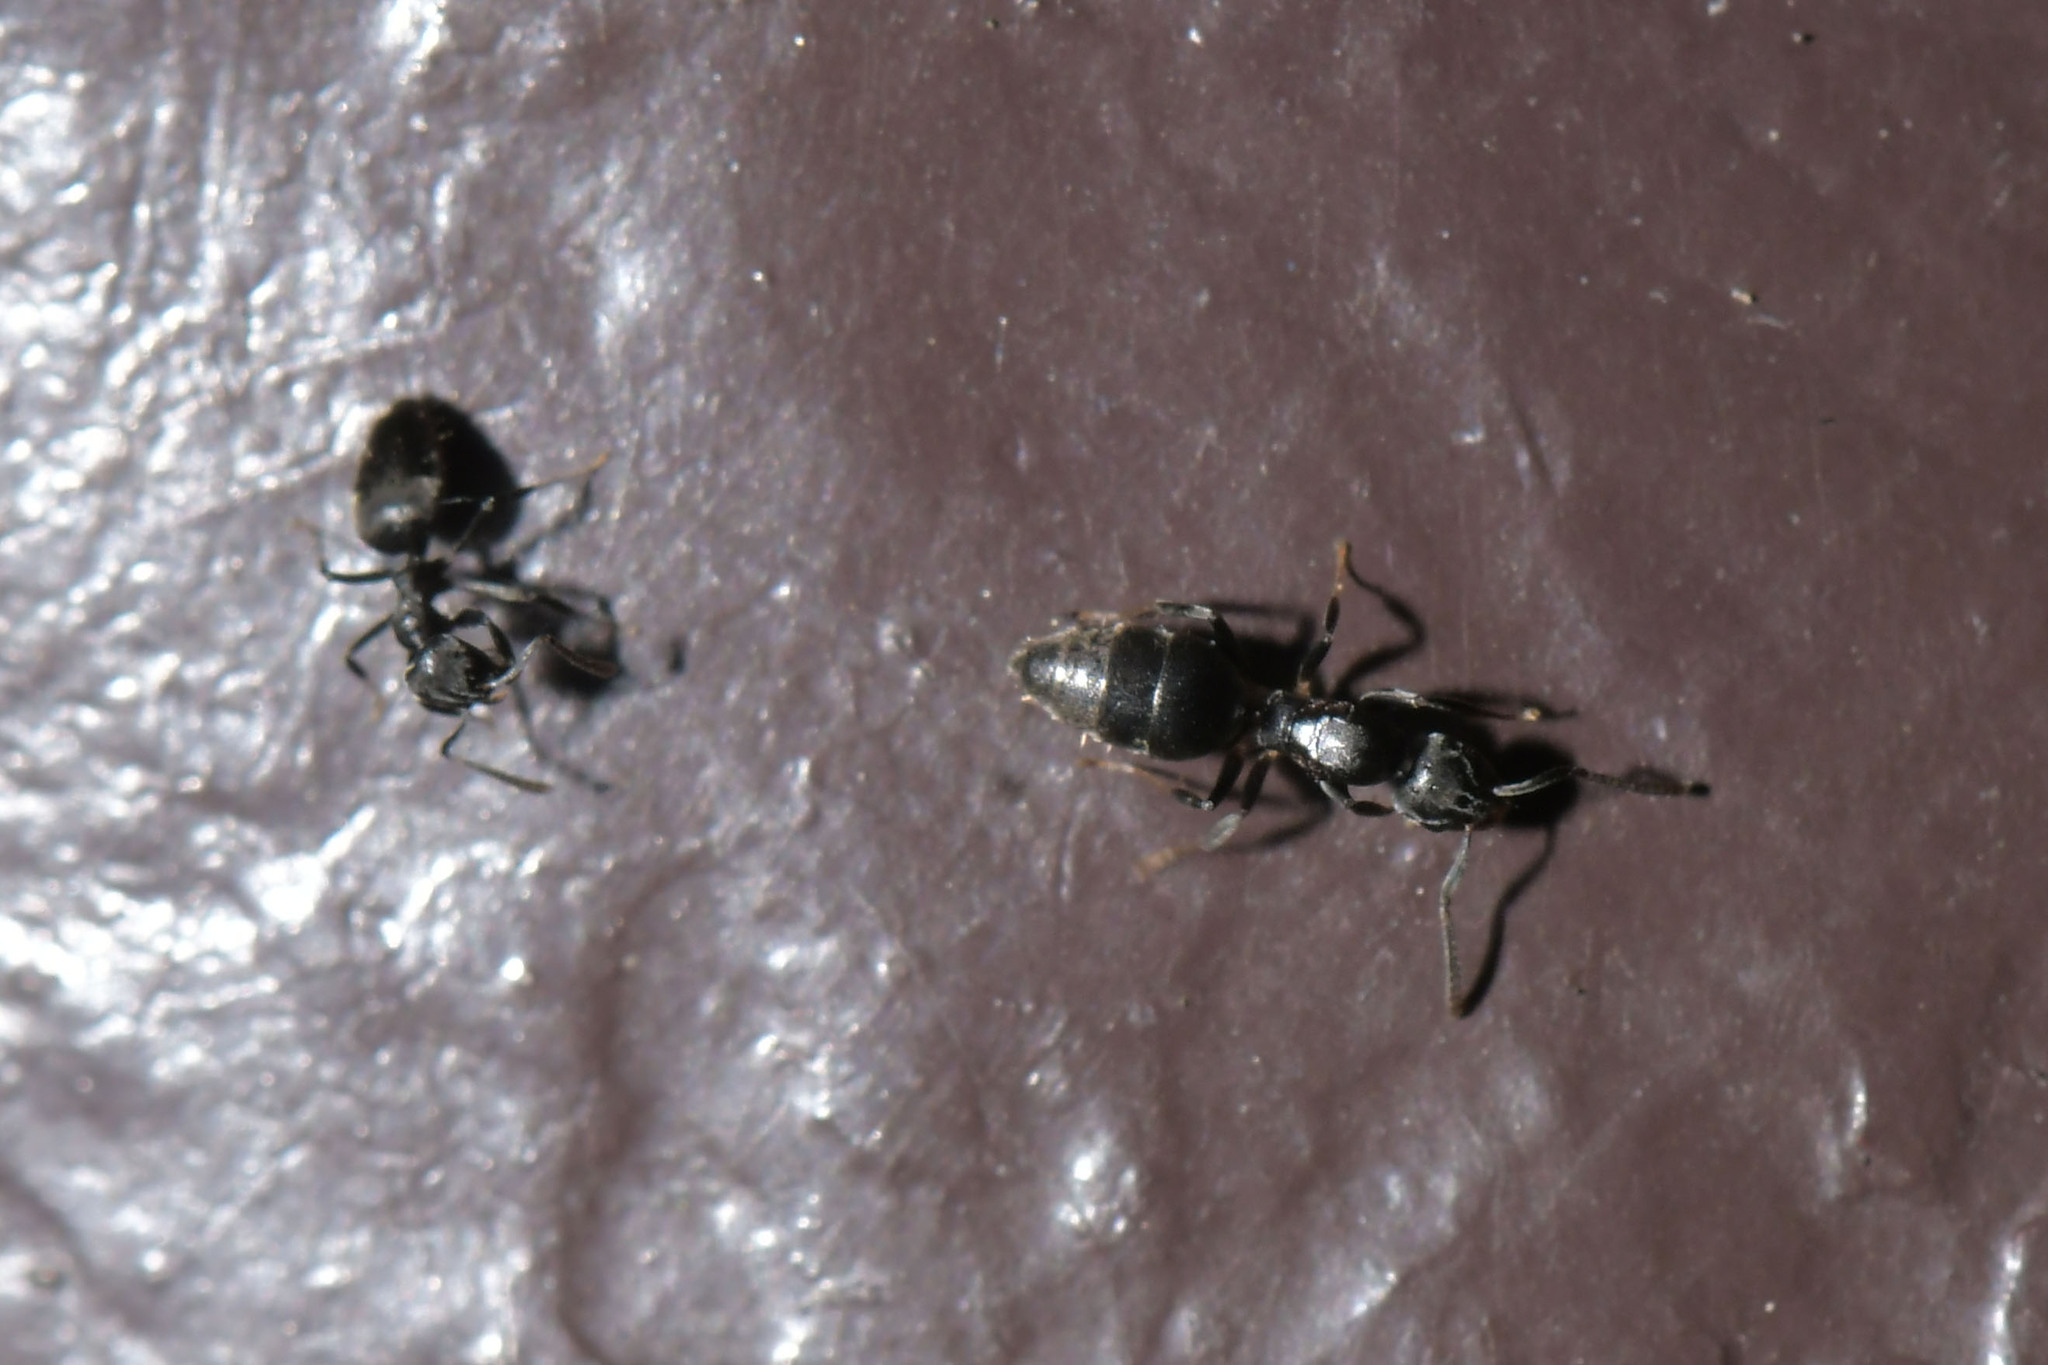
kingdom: Animalia
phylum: Arthropoda
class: Insecta
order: Hymenoptera
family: Formicidae
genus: Technomyrmex
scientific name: Technomyrmex brunneus
